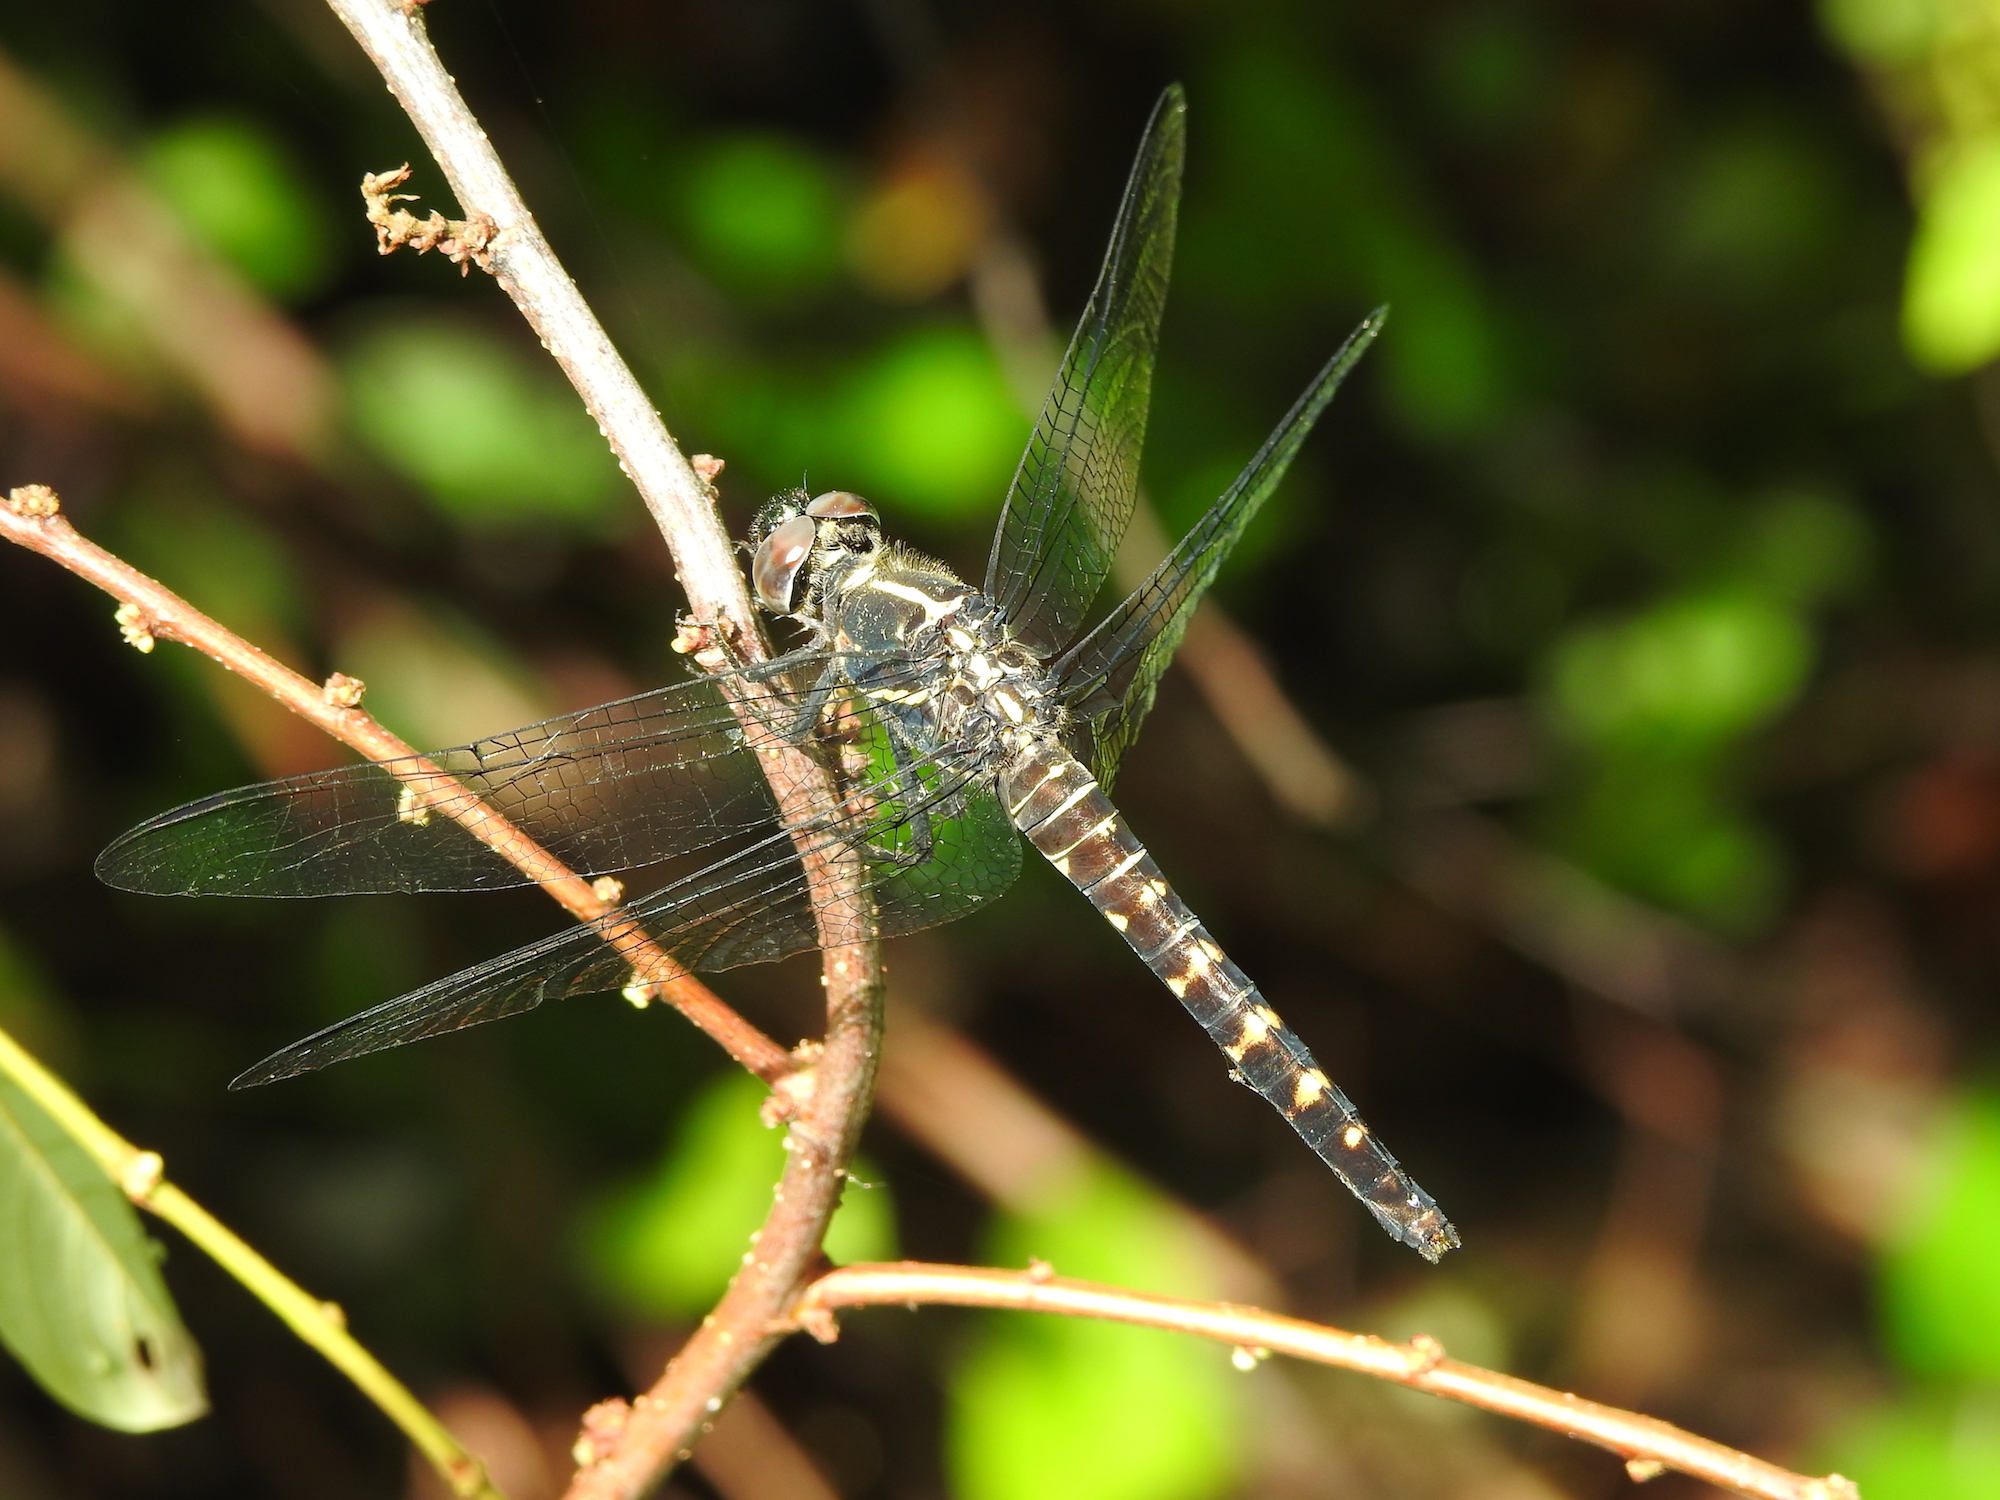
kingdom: Animalia
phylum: Arthropoda
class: Insecta
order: Odonata
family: Libellulidae
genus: Onychothemis
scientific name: Onychothemis testacea
